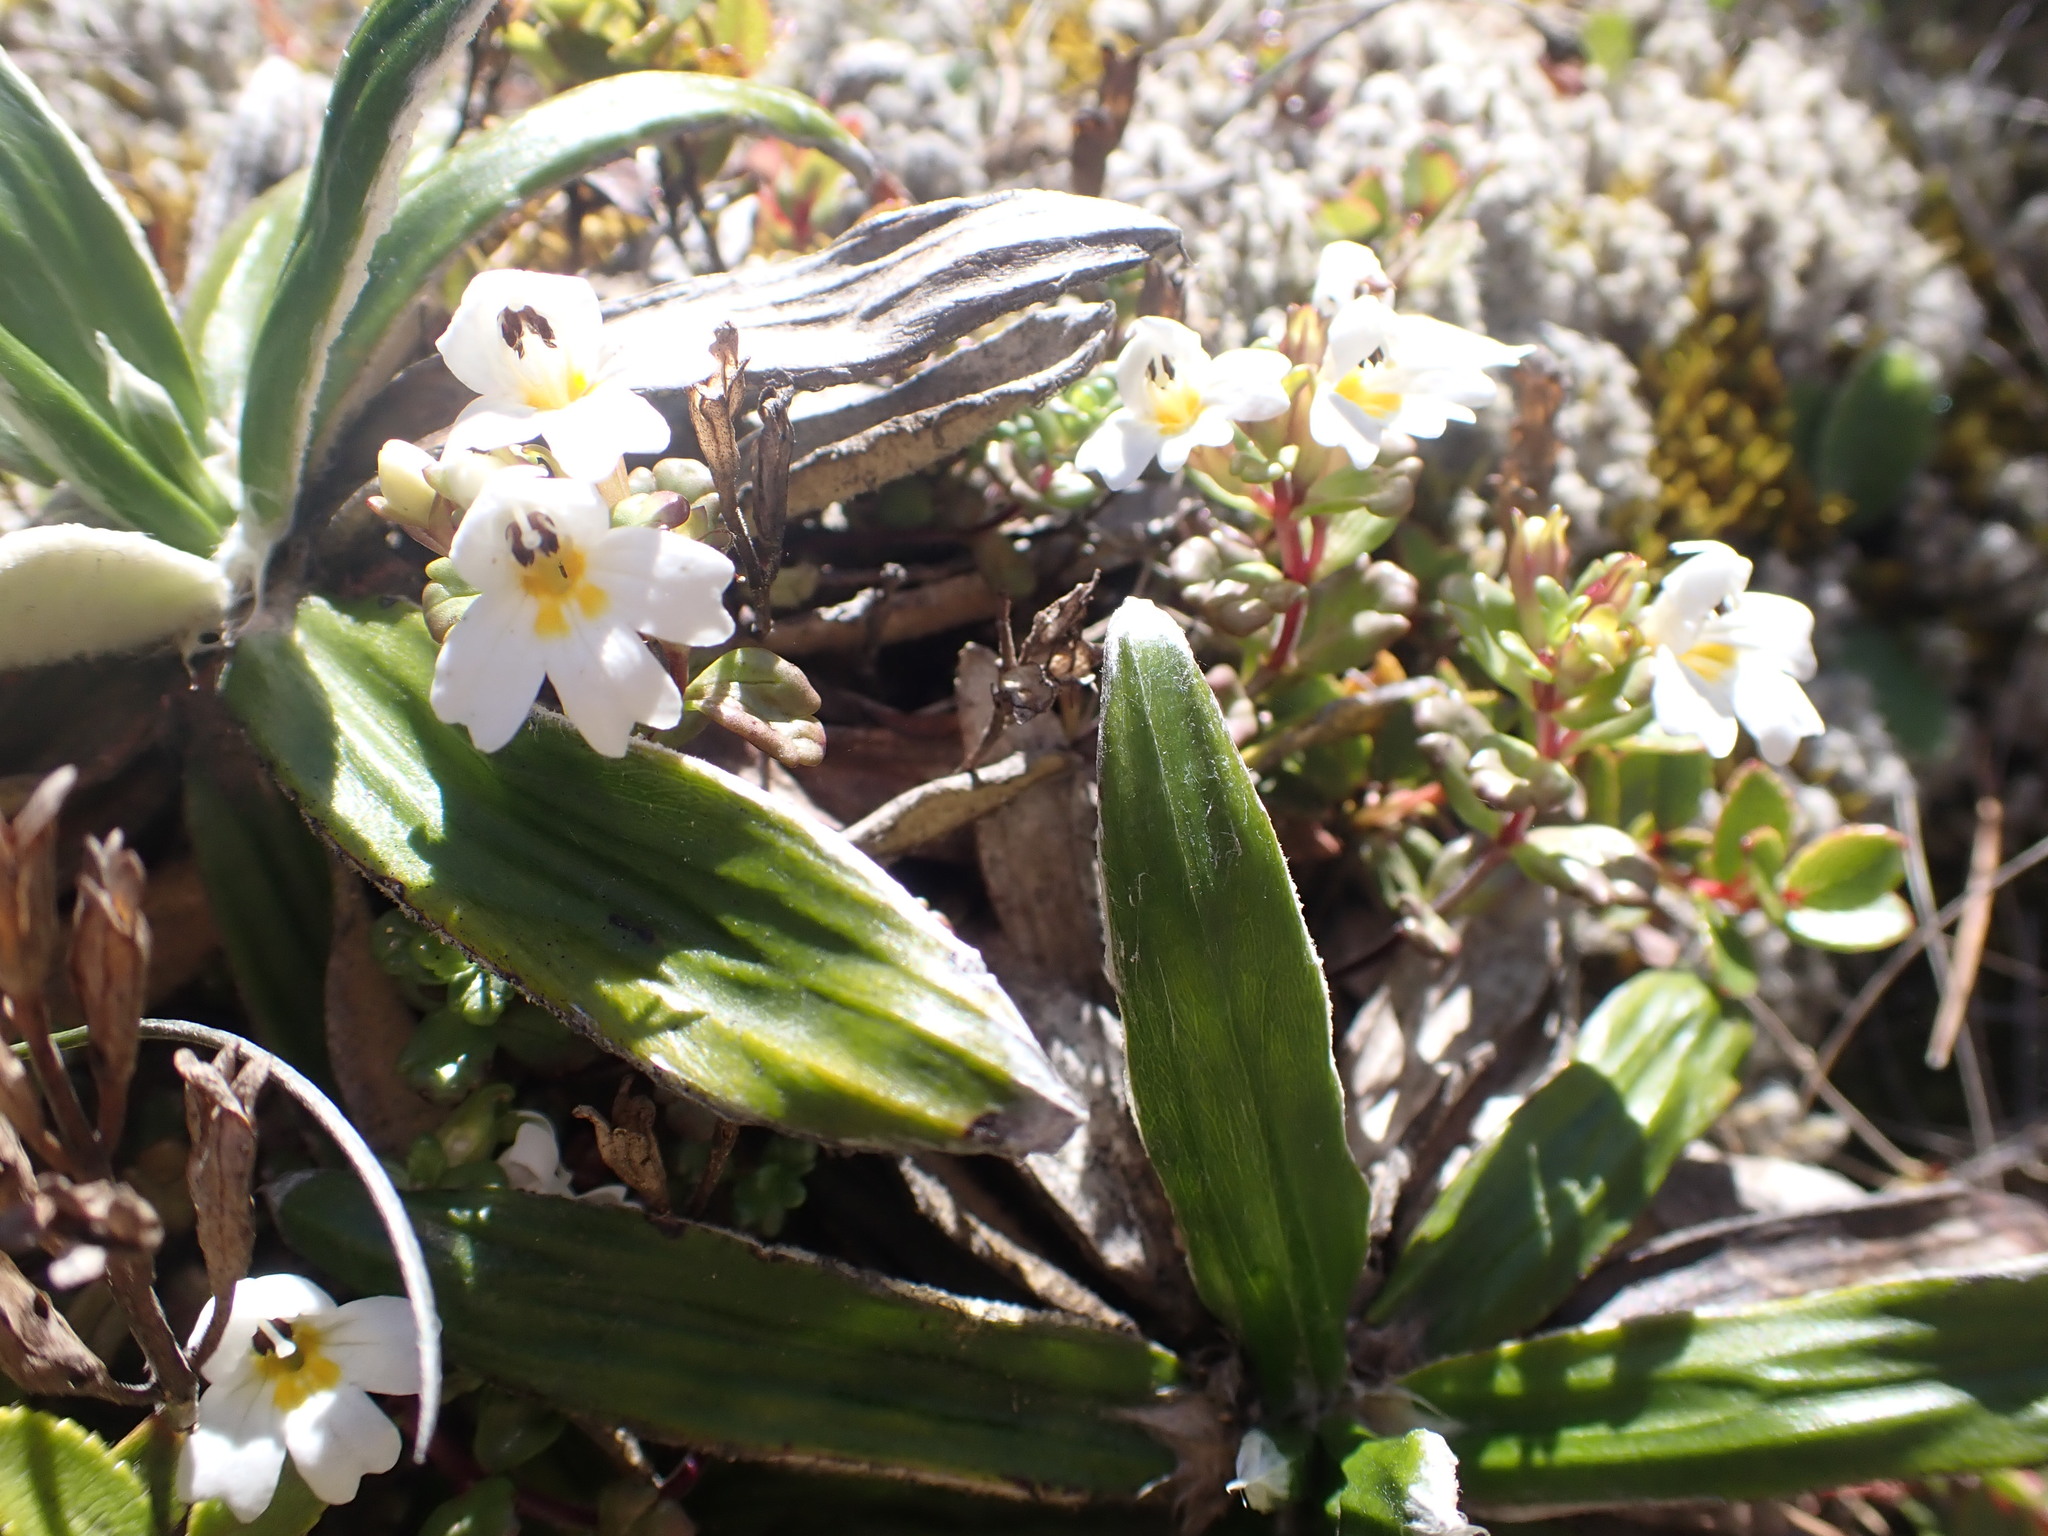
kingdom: Plantae
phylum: Tracheophyta
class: Magnoliopsida
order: Lamiales
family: Orobanchaceae
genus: Euphrasia
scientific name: Euphrasia laingii
